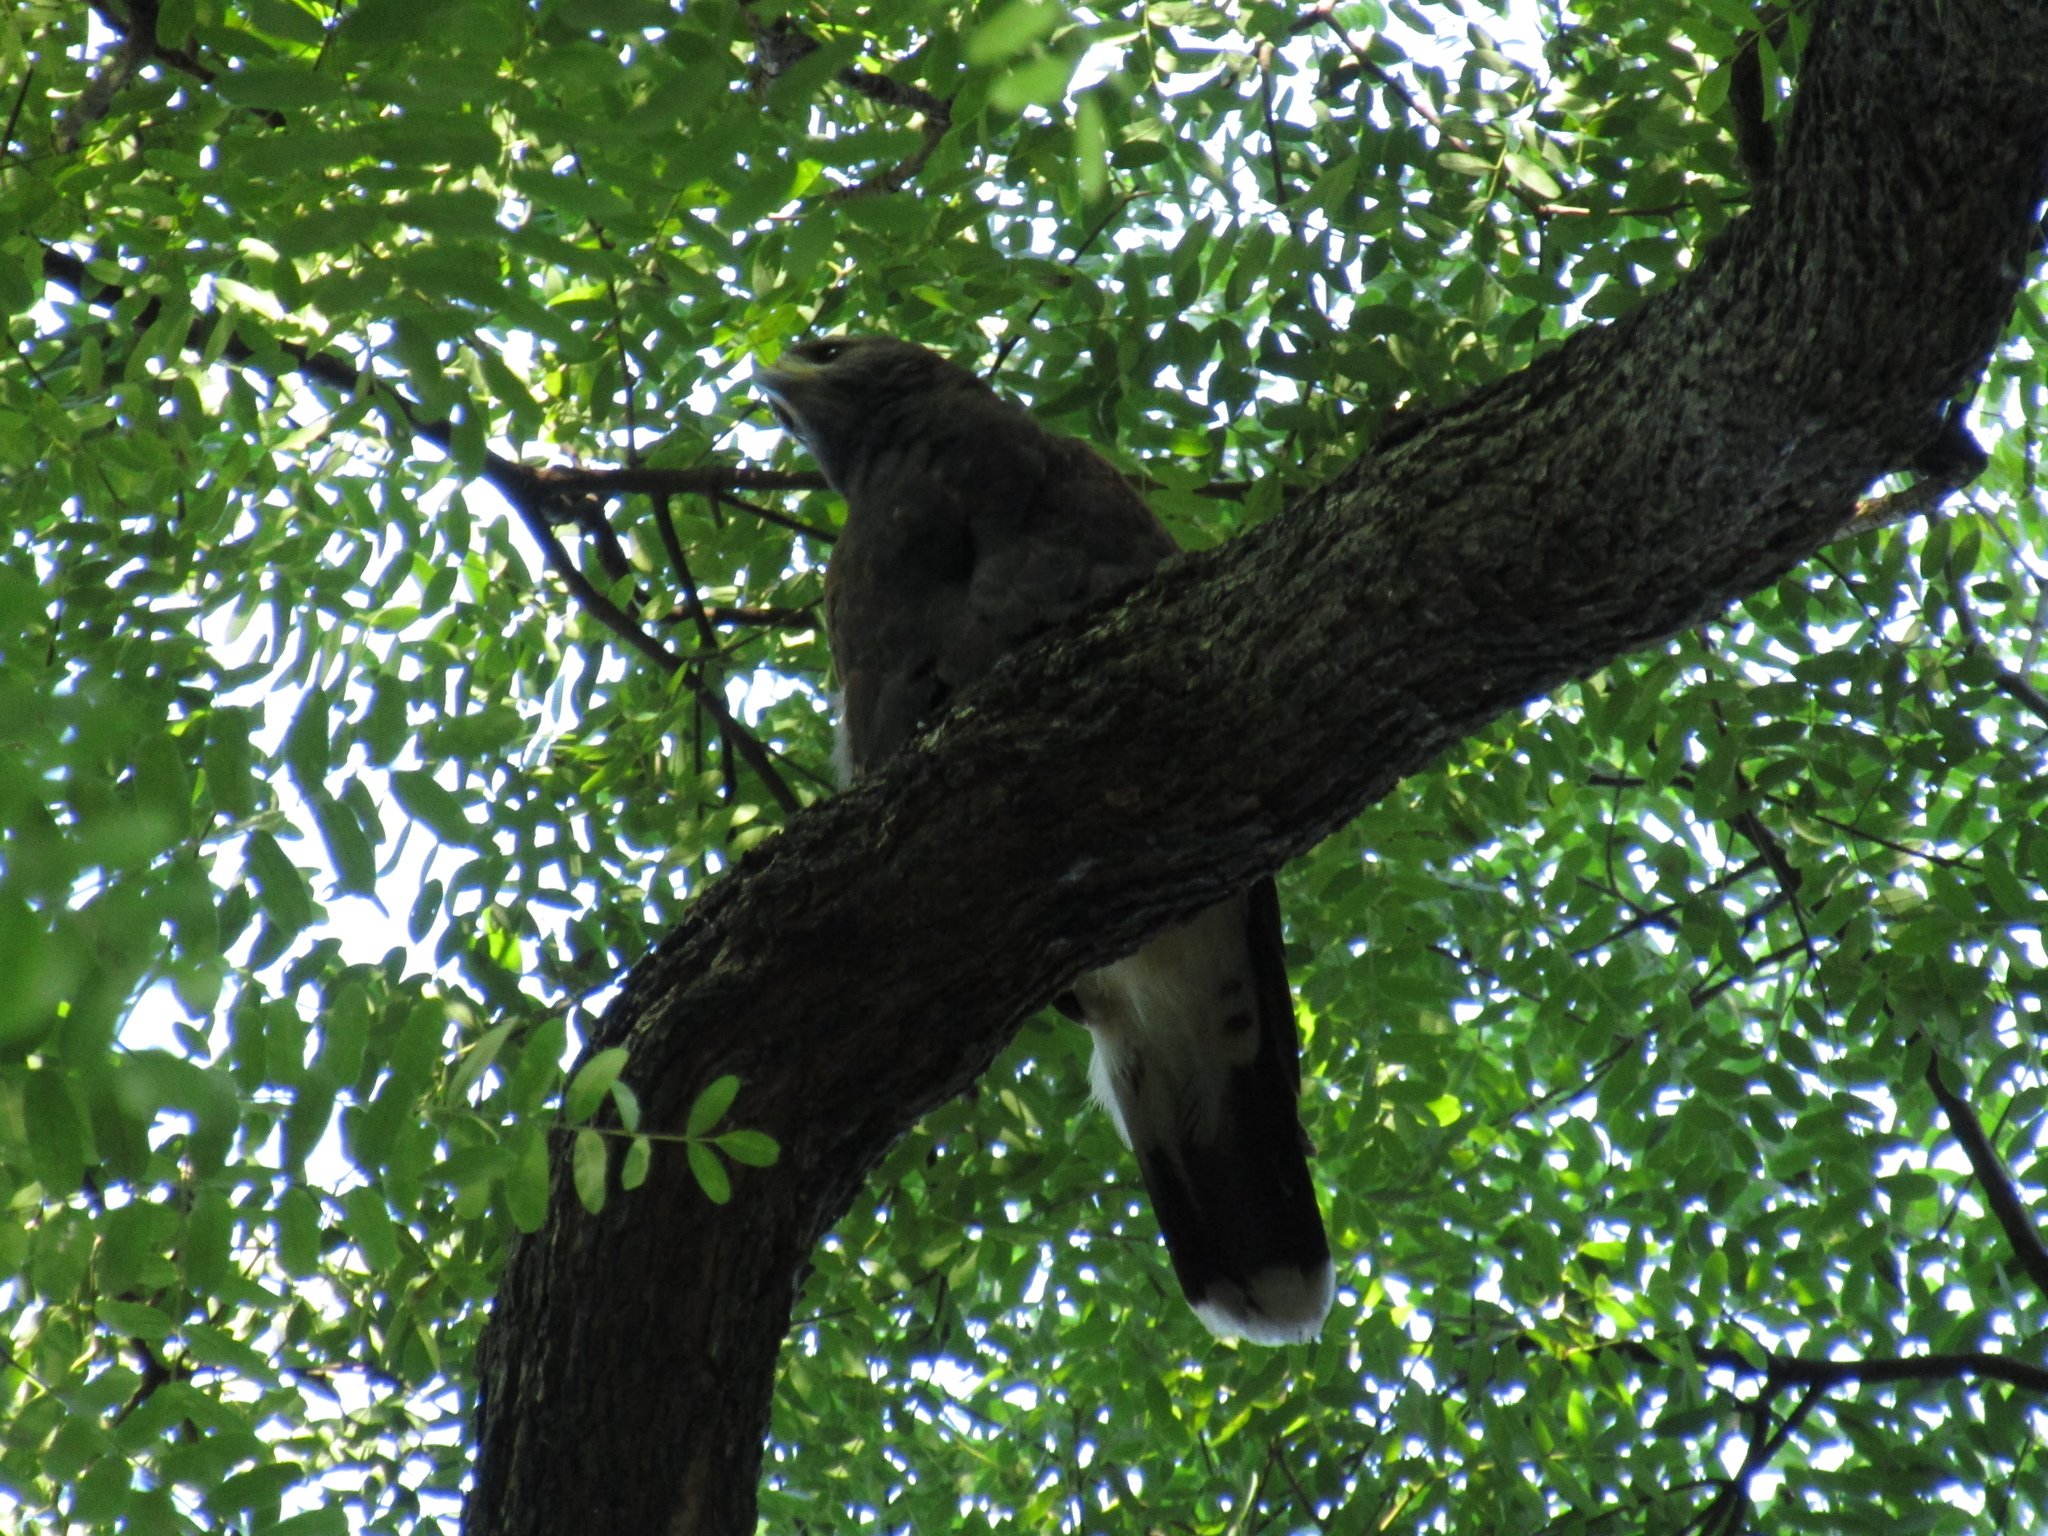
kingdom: Animalia
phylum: Chordata
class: Aves
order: Accipitriformes
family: Accipitridae
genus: Parabuteo
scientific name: Parabuteo unicinctus
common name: Harris's hawk
